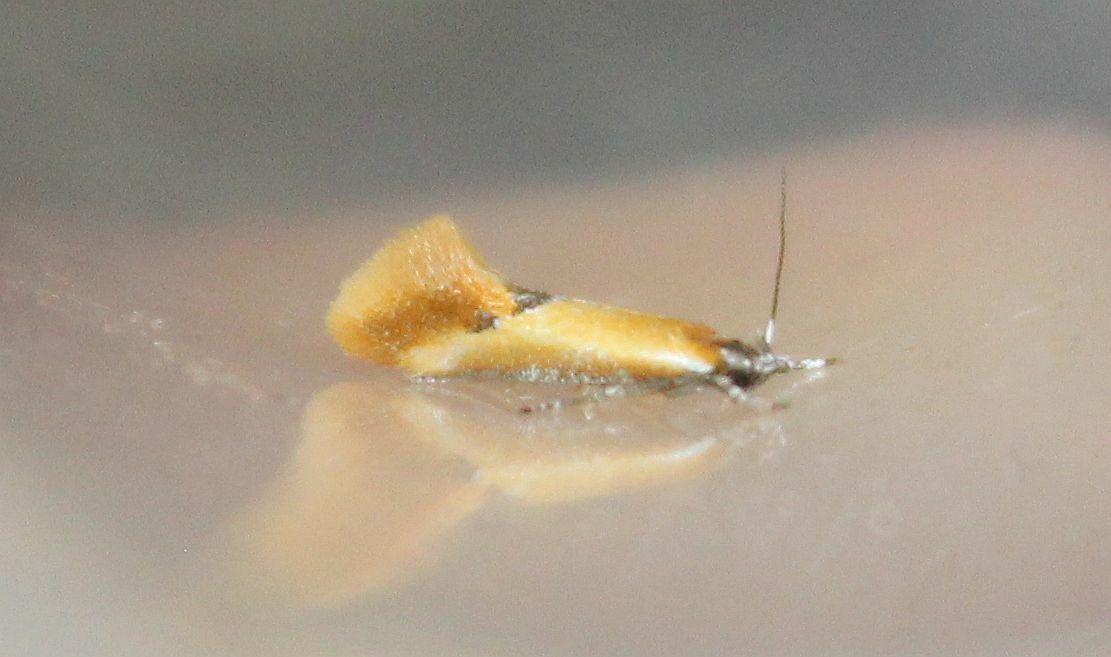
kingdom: Animalia
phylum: Arthropoda
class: Insecta
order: Lepidoptera
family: Oecophoridae
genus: Batia
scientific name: Batia lunaris
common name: Moth
